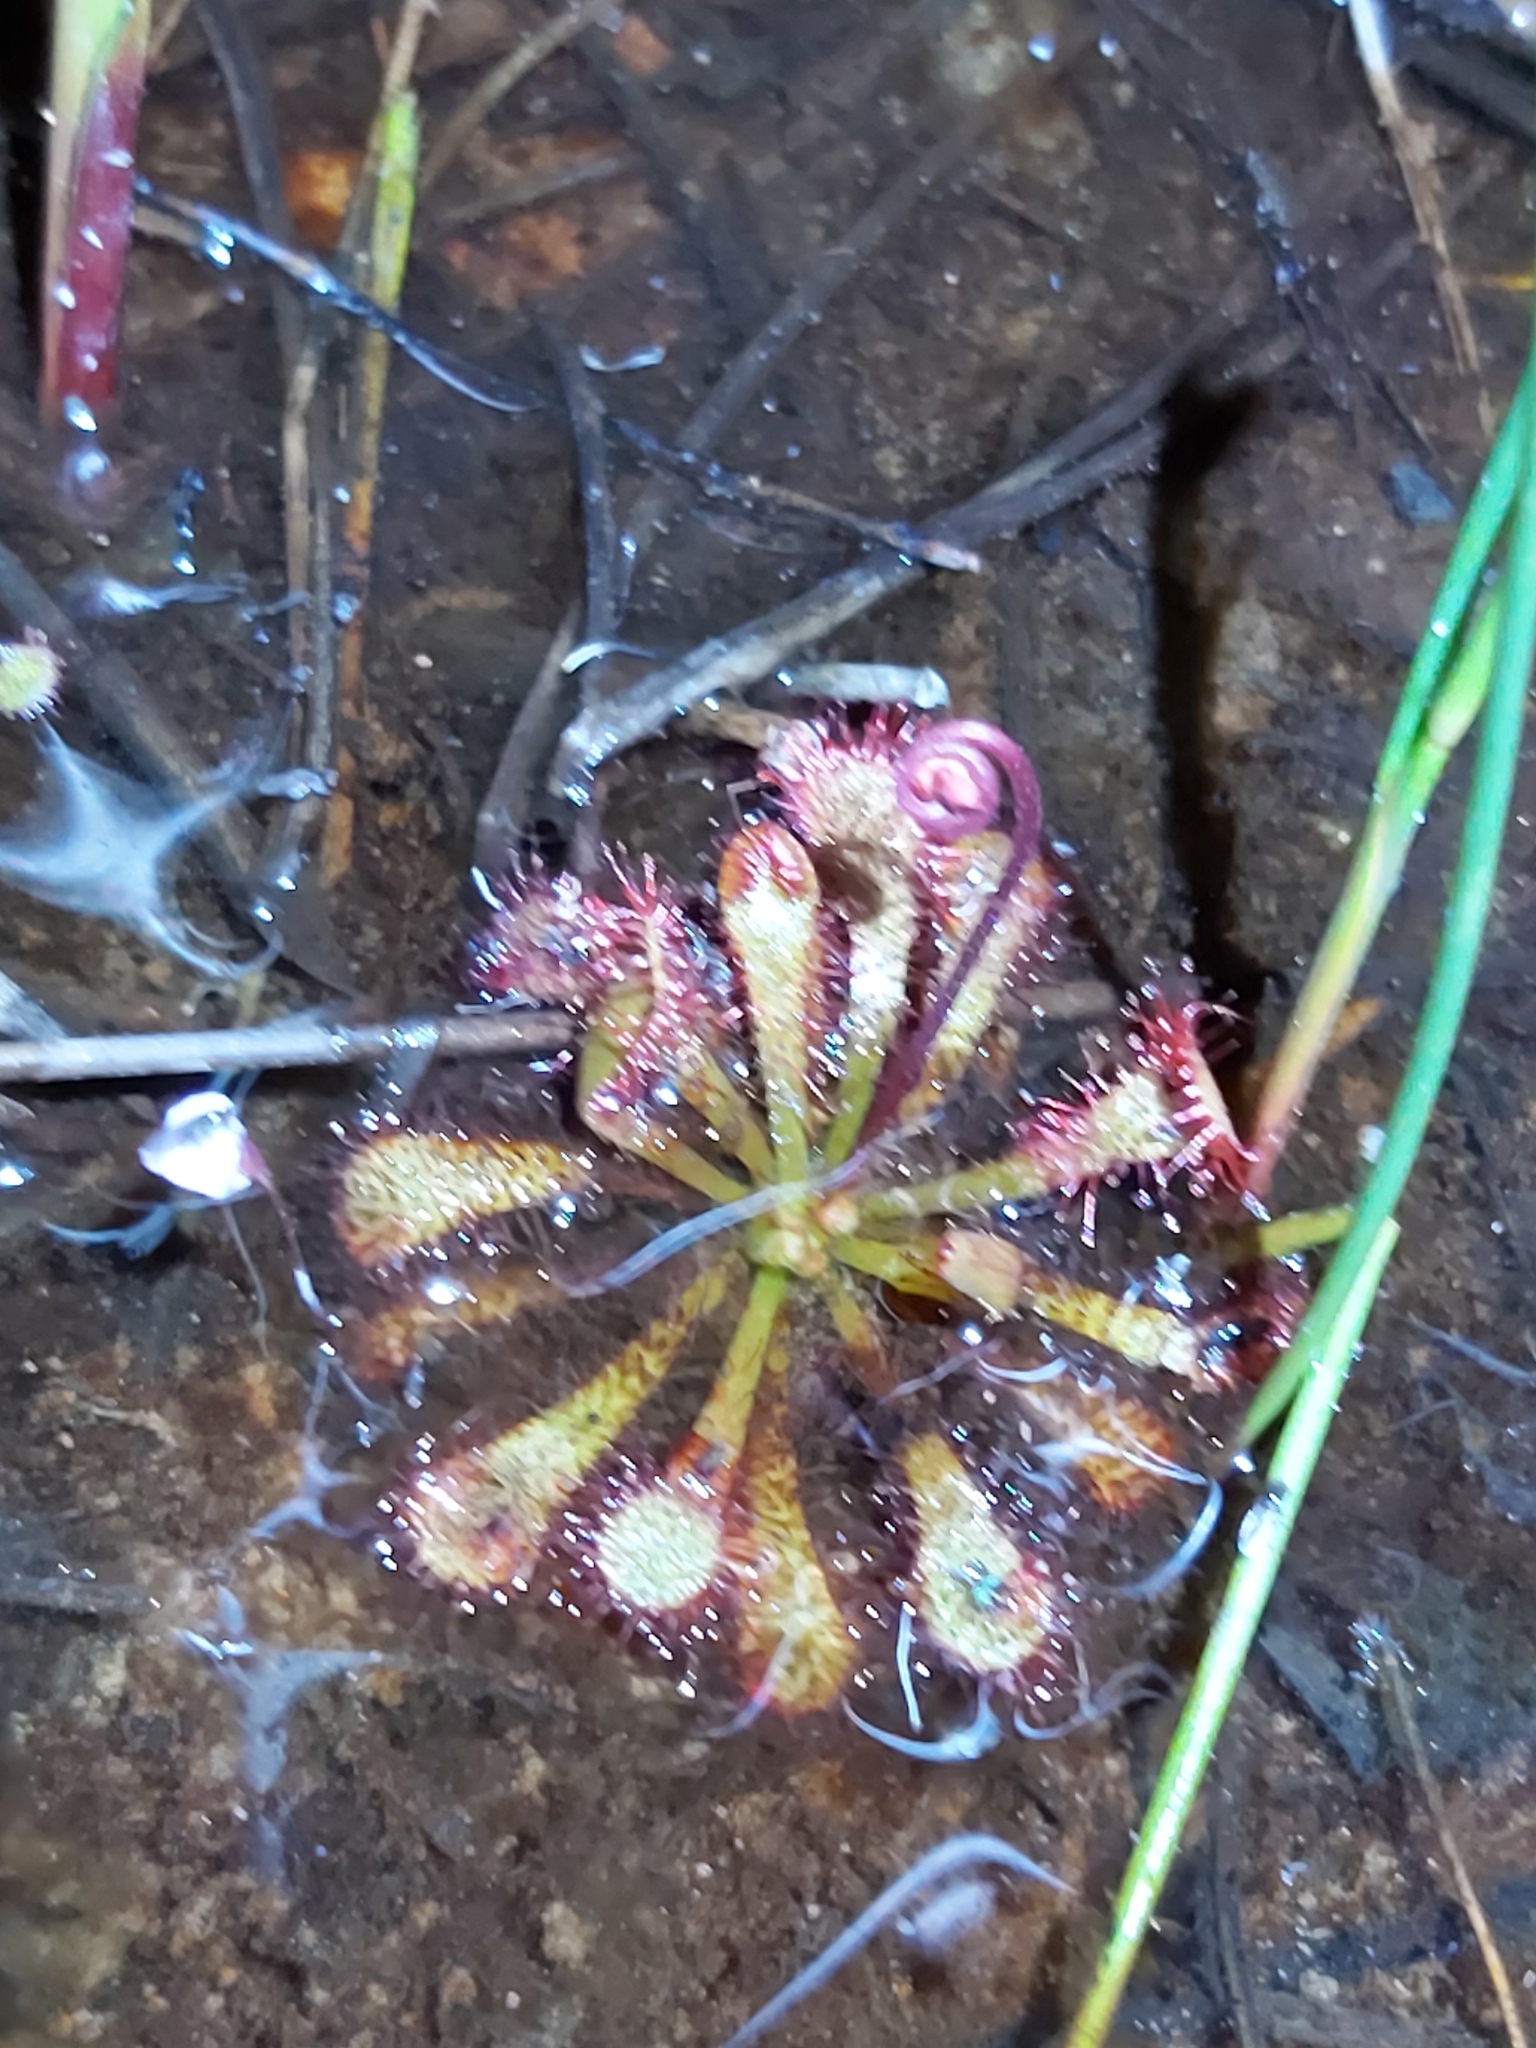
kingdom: Plantae
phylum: Tracheophyta
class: Magnoliopsida
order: Caryophyllales
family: Droseraceae
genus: Drosera
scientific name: Drosera spatulata
